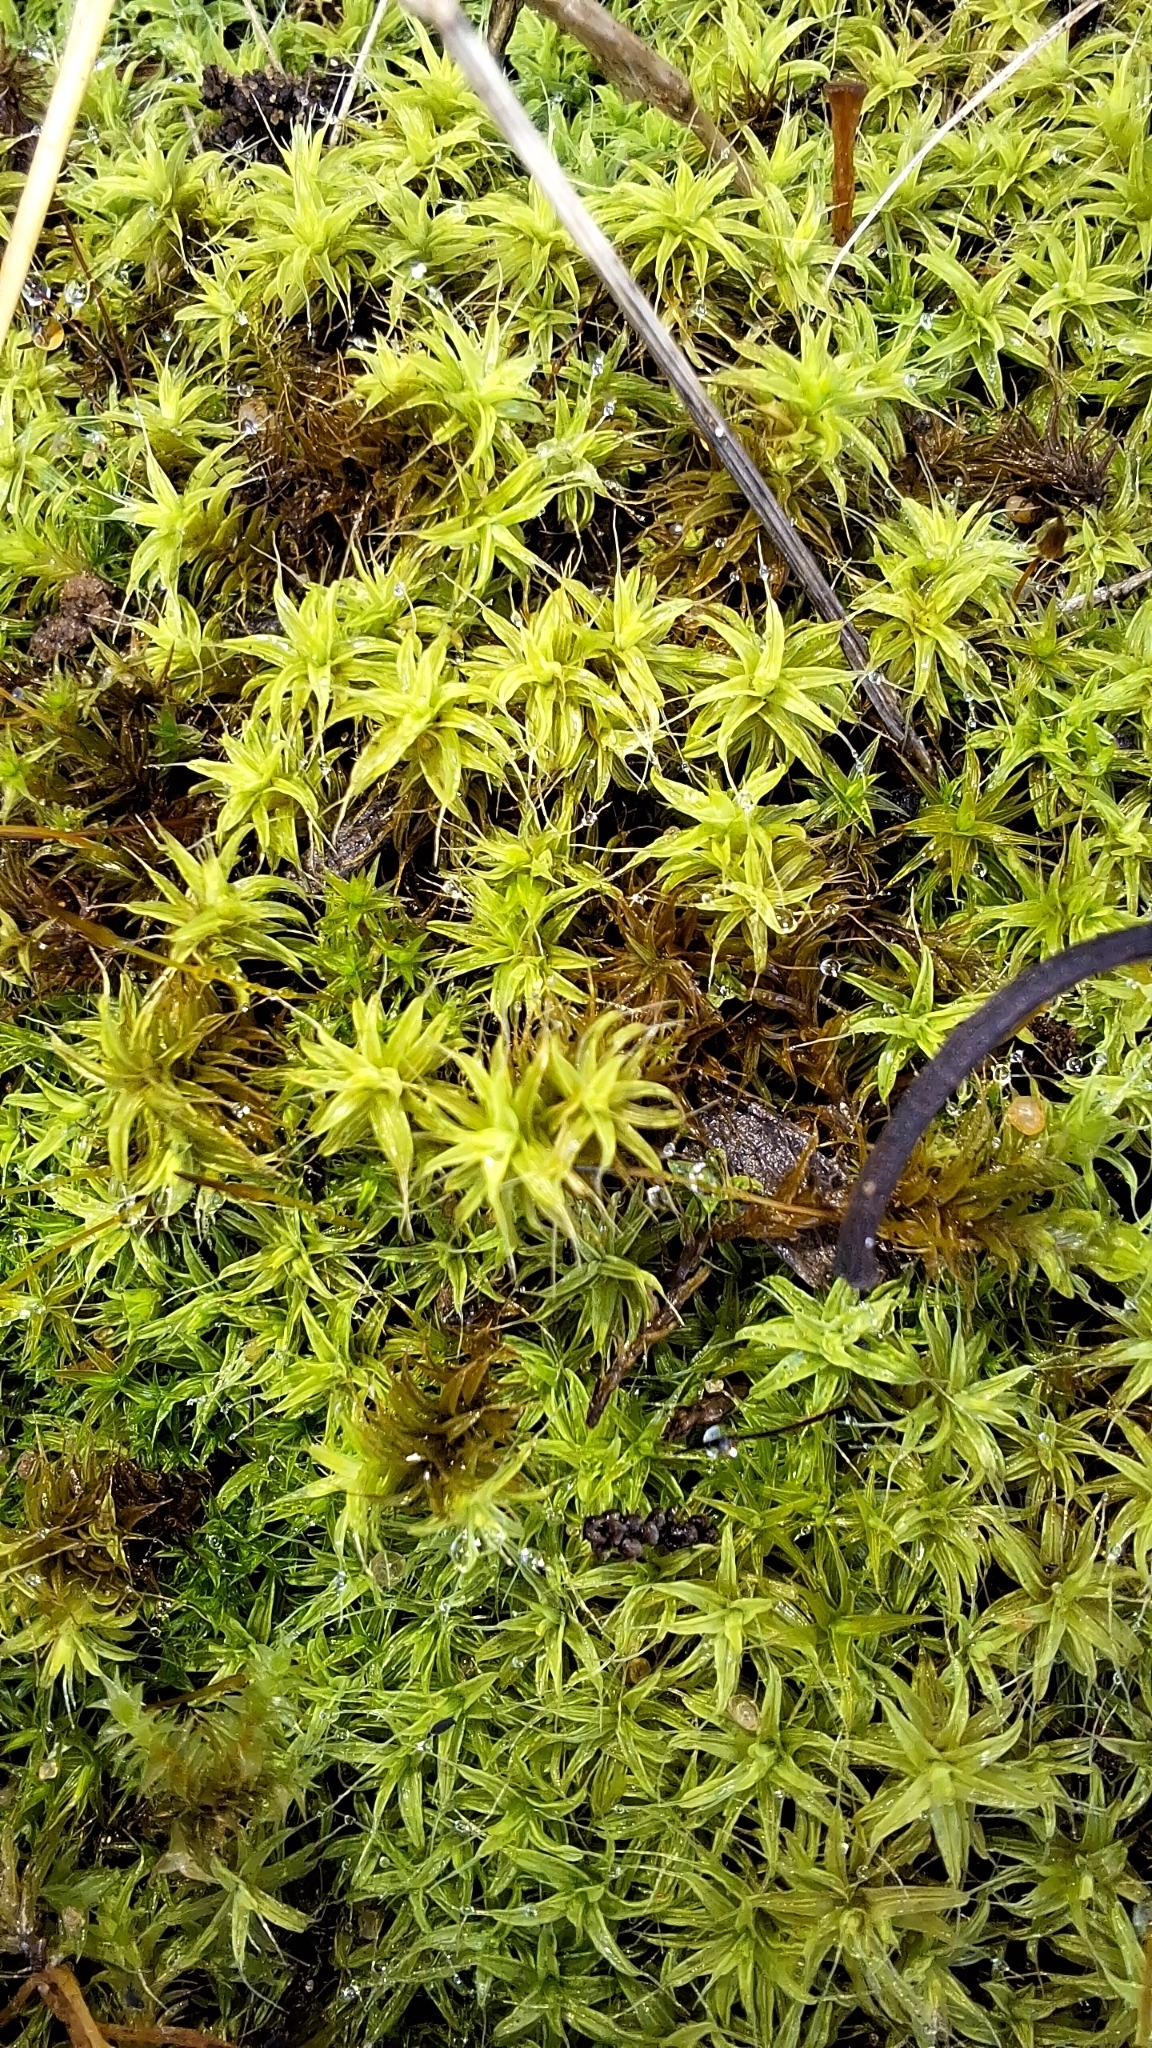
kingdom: Plantae
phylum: Bryophyta
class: Bryopsida
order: Pottiales
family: Pottiaceae
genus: Pseudocrossidium
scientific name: Pseudocrossidium crinitum
